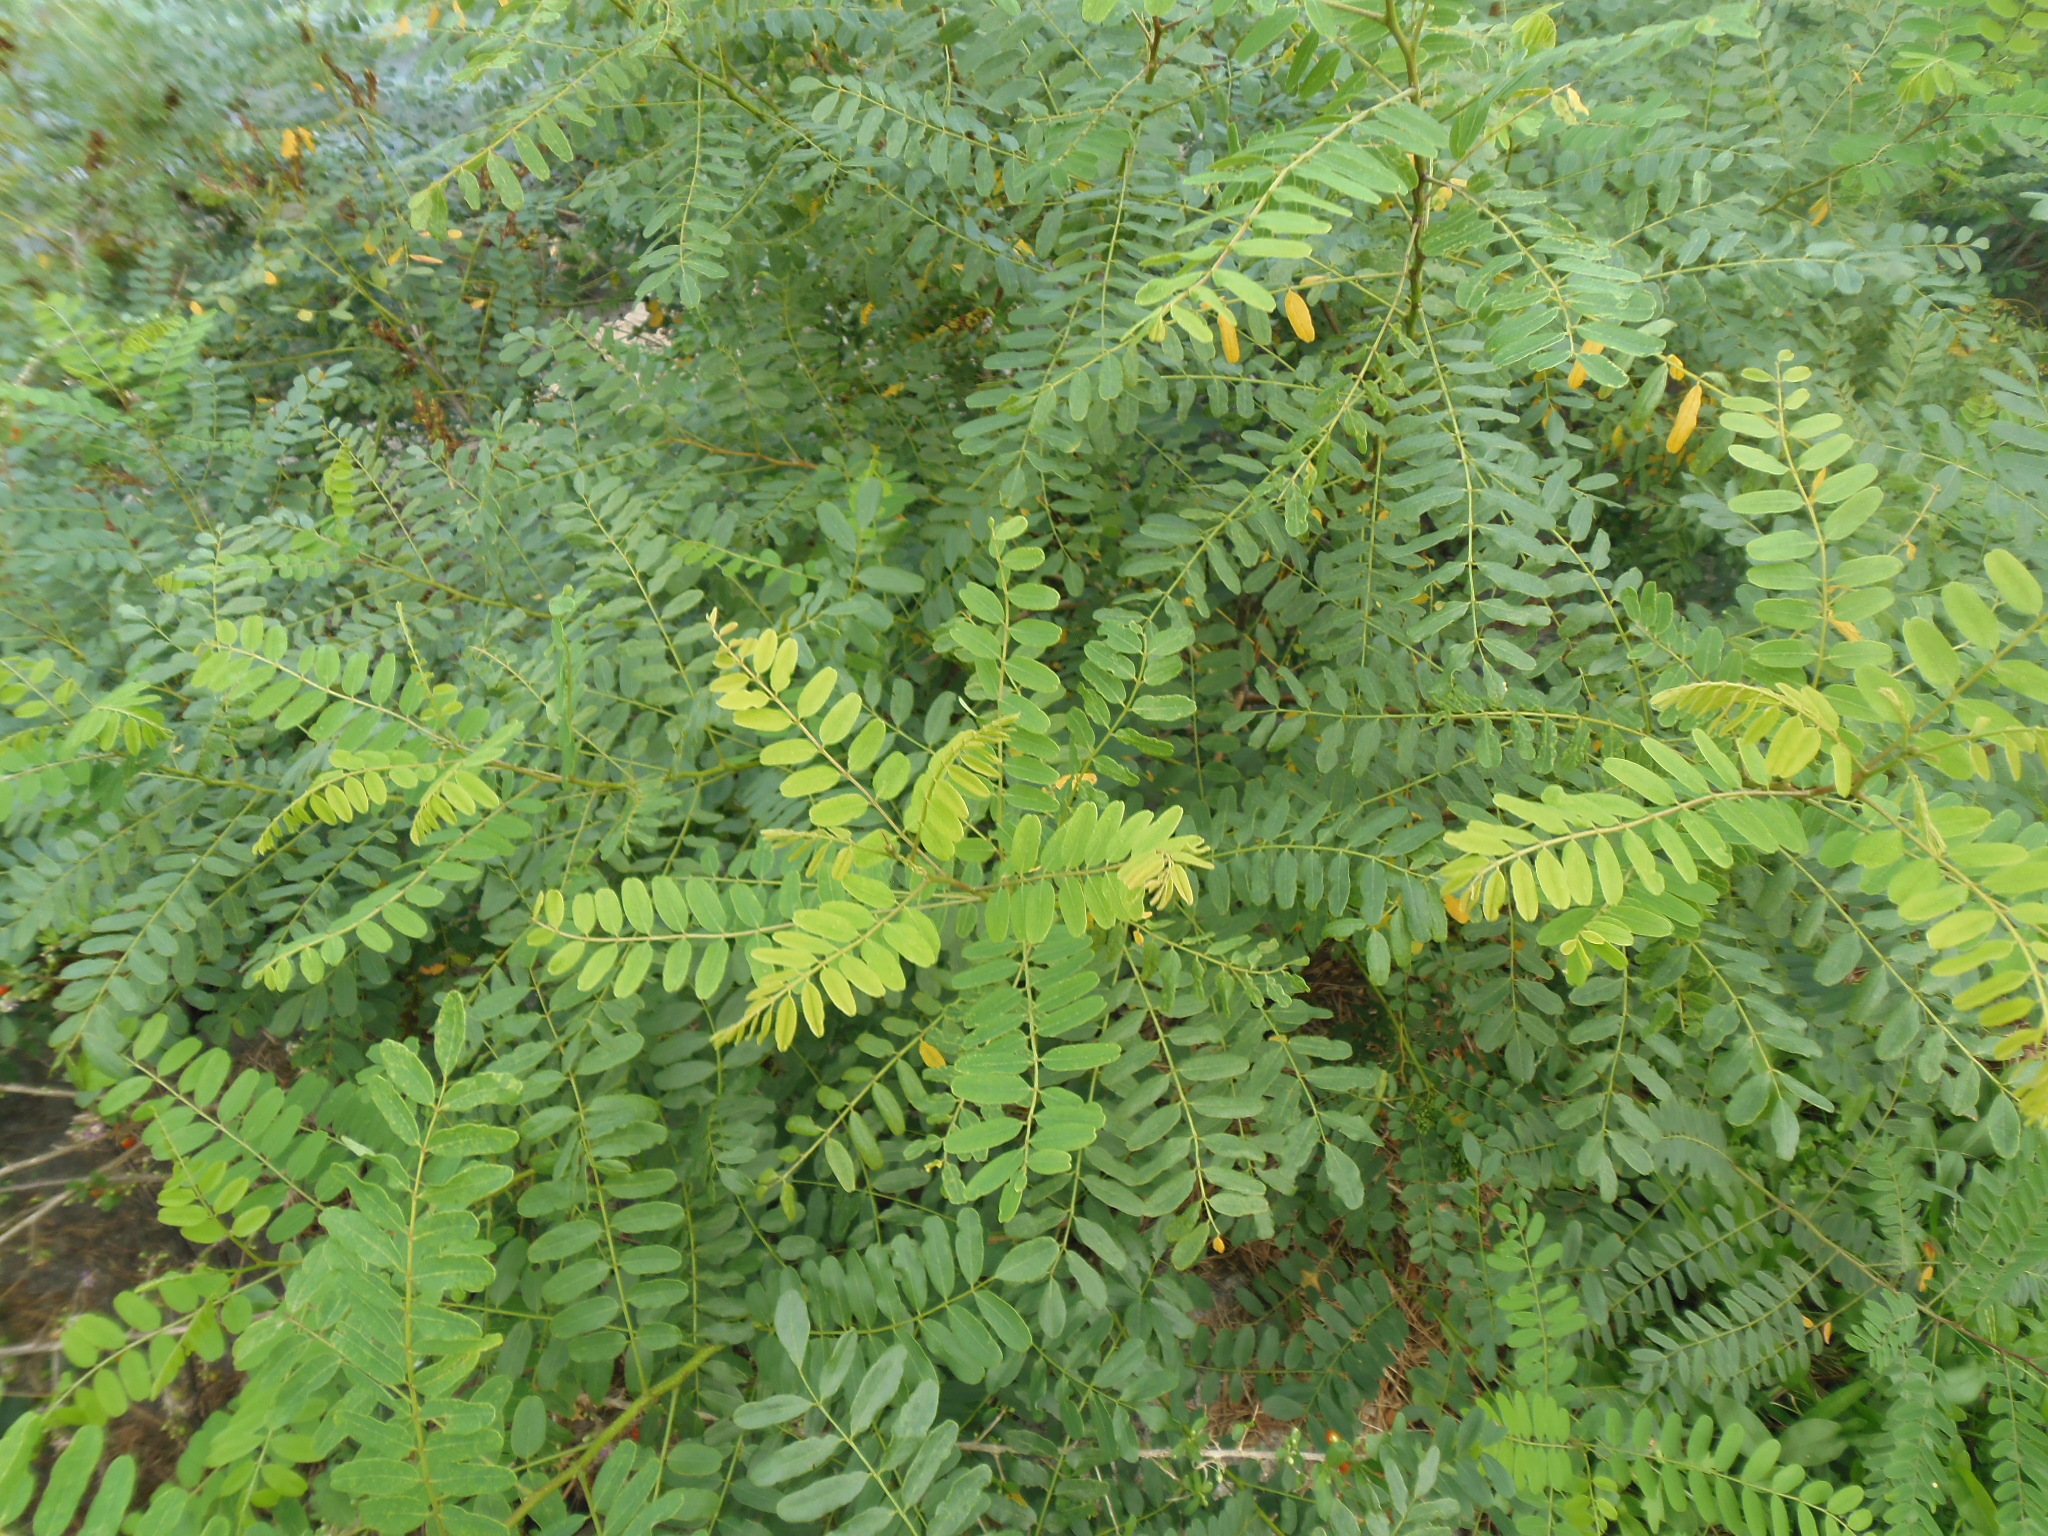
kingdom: Plantae
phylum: Tracheophyta
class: Magnoliopsida
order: Fabales
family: Fabaceae
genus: Amorpha
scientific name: Amorpha fruticosa
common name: False indigo
